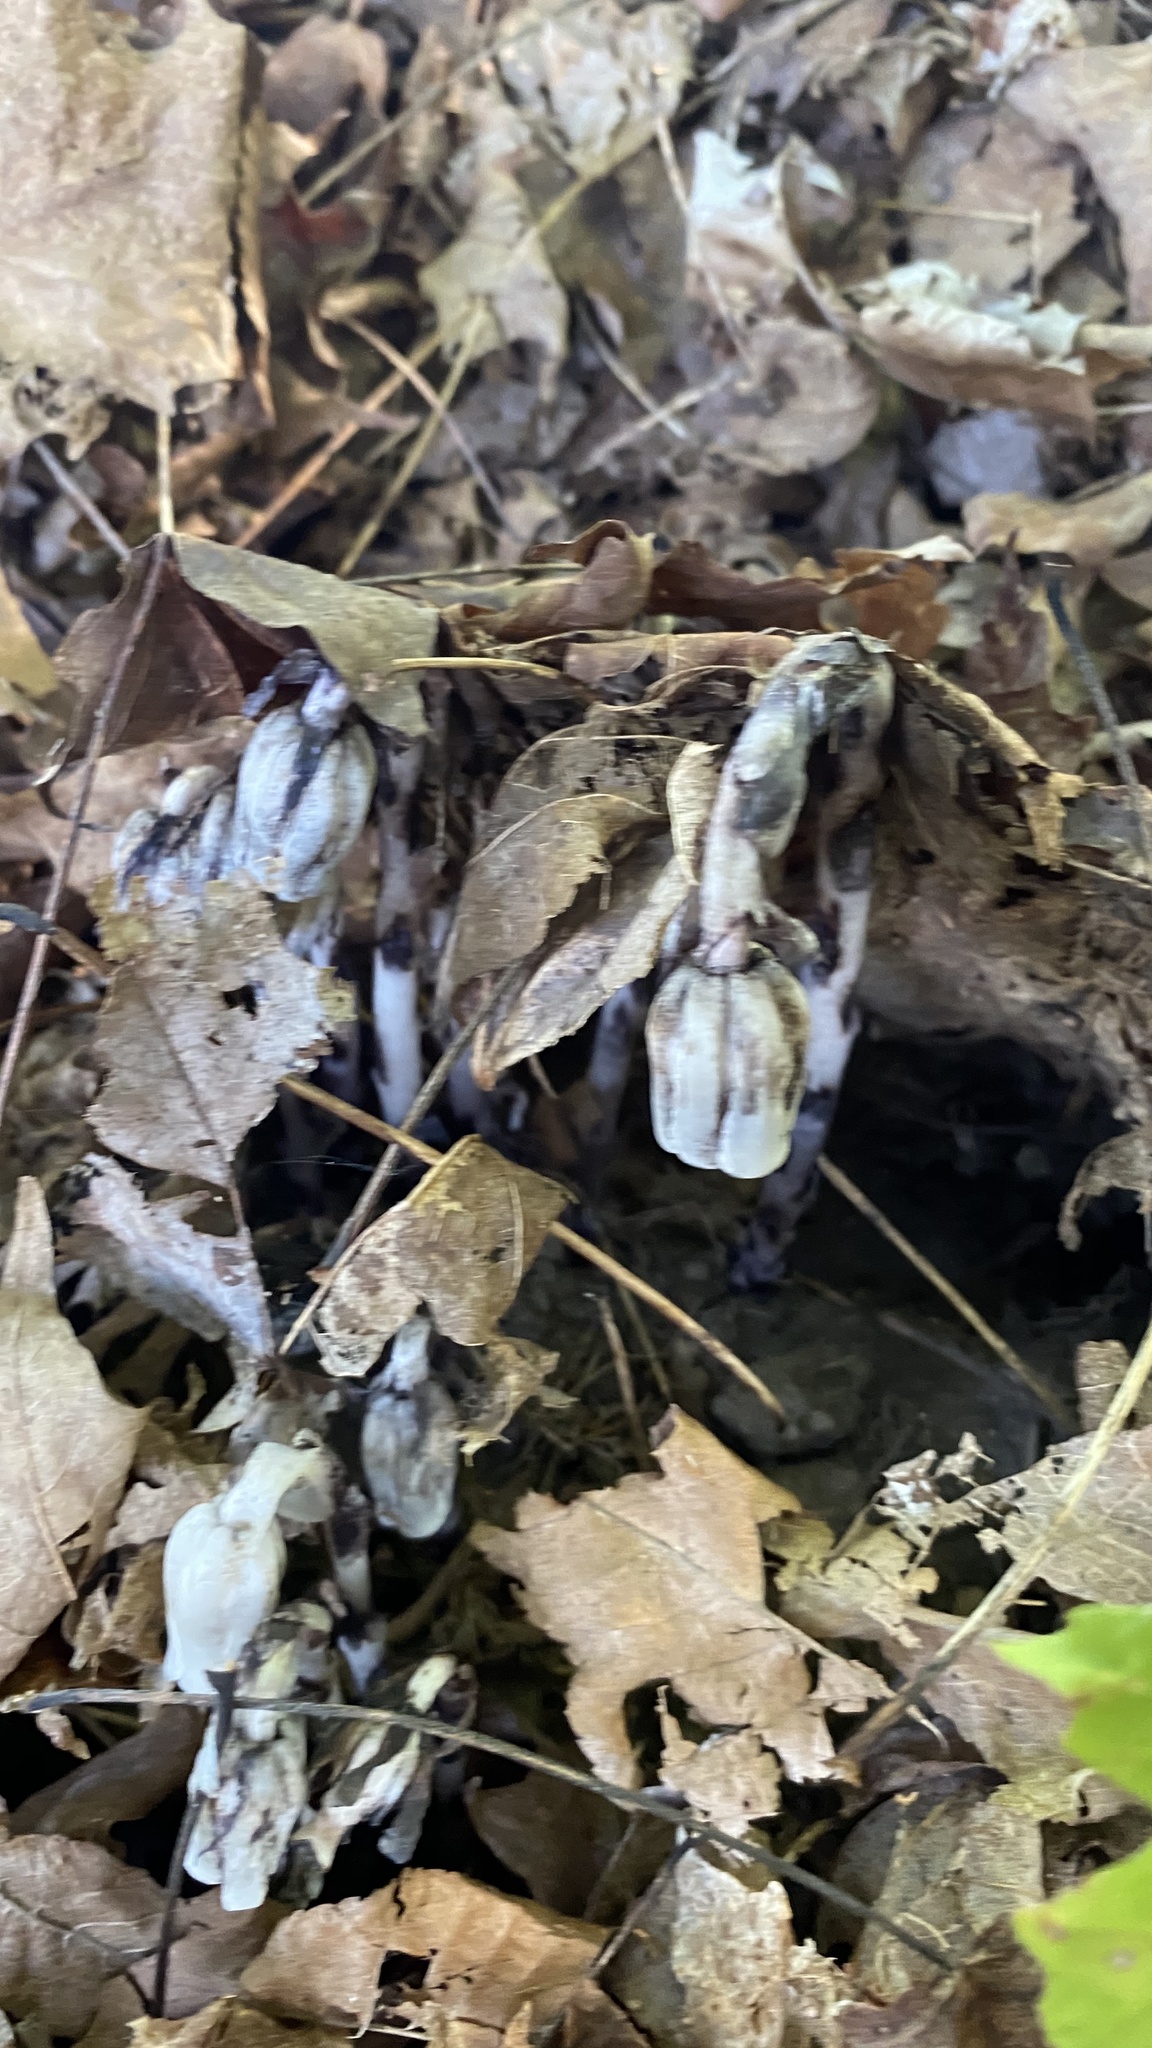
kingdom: Plantae
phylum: Tracheophyta
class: Magnoliopsida
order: Ericales
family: Ericaceae
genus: Monotropa
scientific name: Monotropa uniflora
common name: Convulsion root
